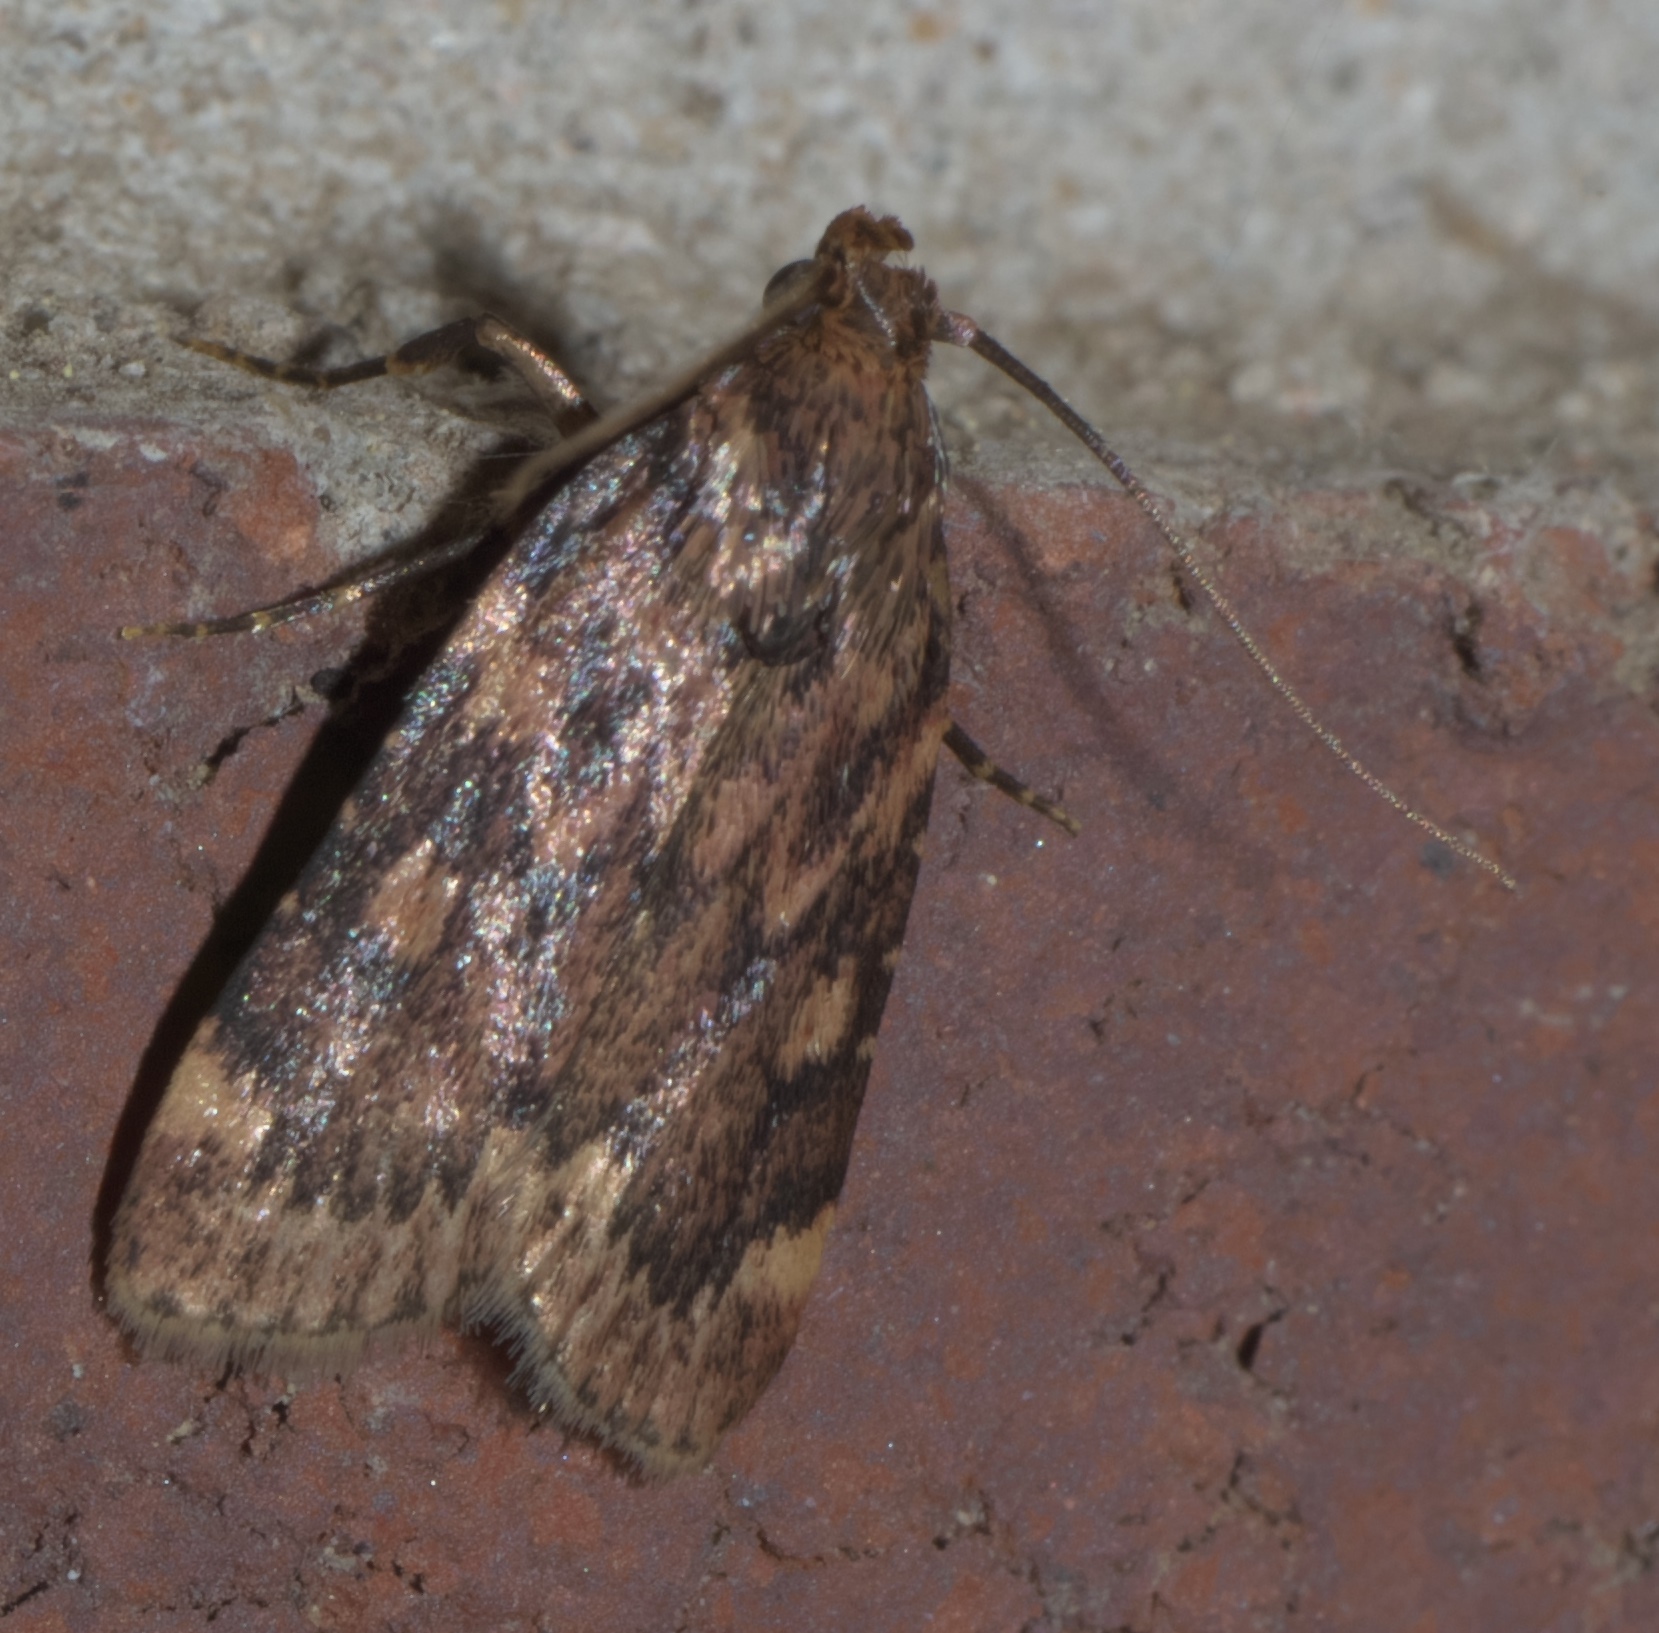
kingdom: Animalia
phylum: Arthropoda
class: Insecta
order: Lepidoptera
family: Pyralidae
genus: Aglossa
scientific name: Aglossa cuprina
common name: Grease moth
